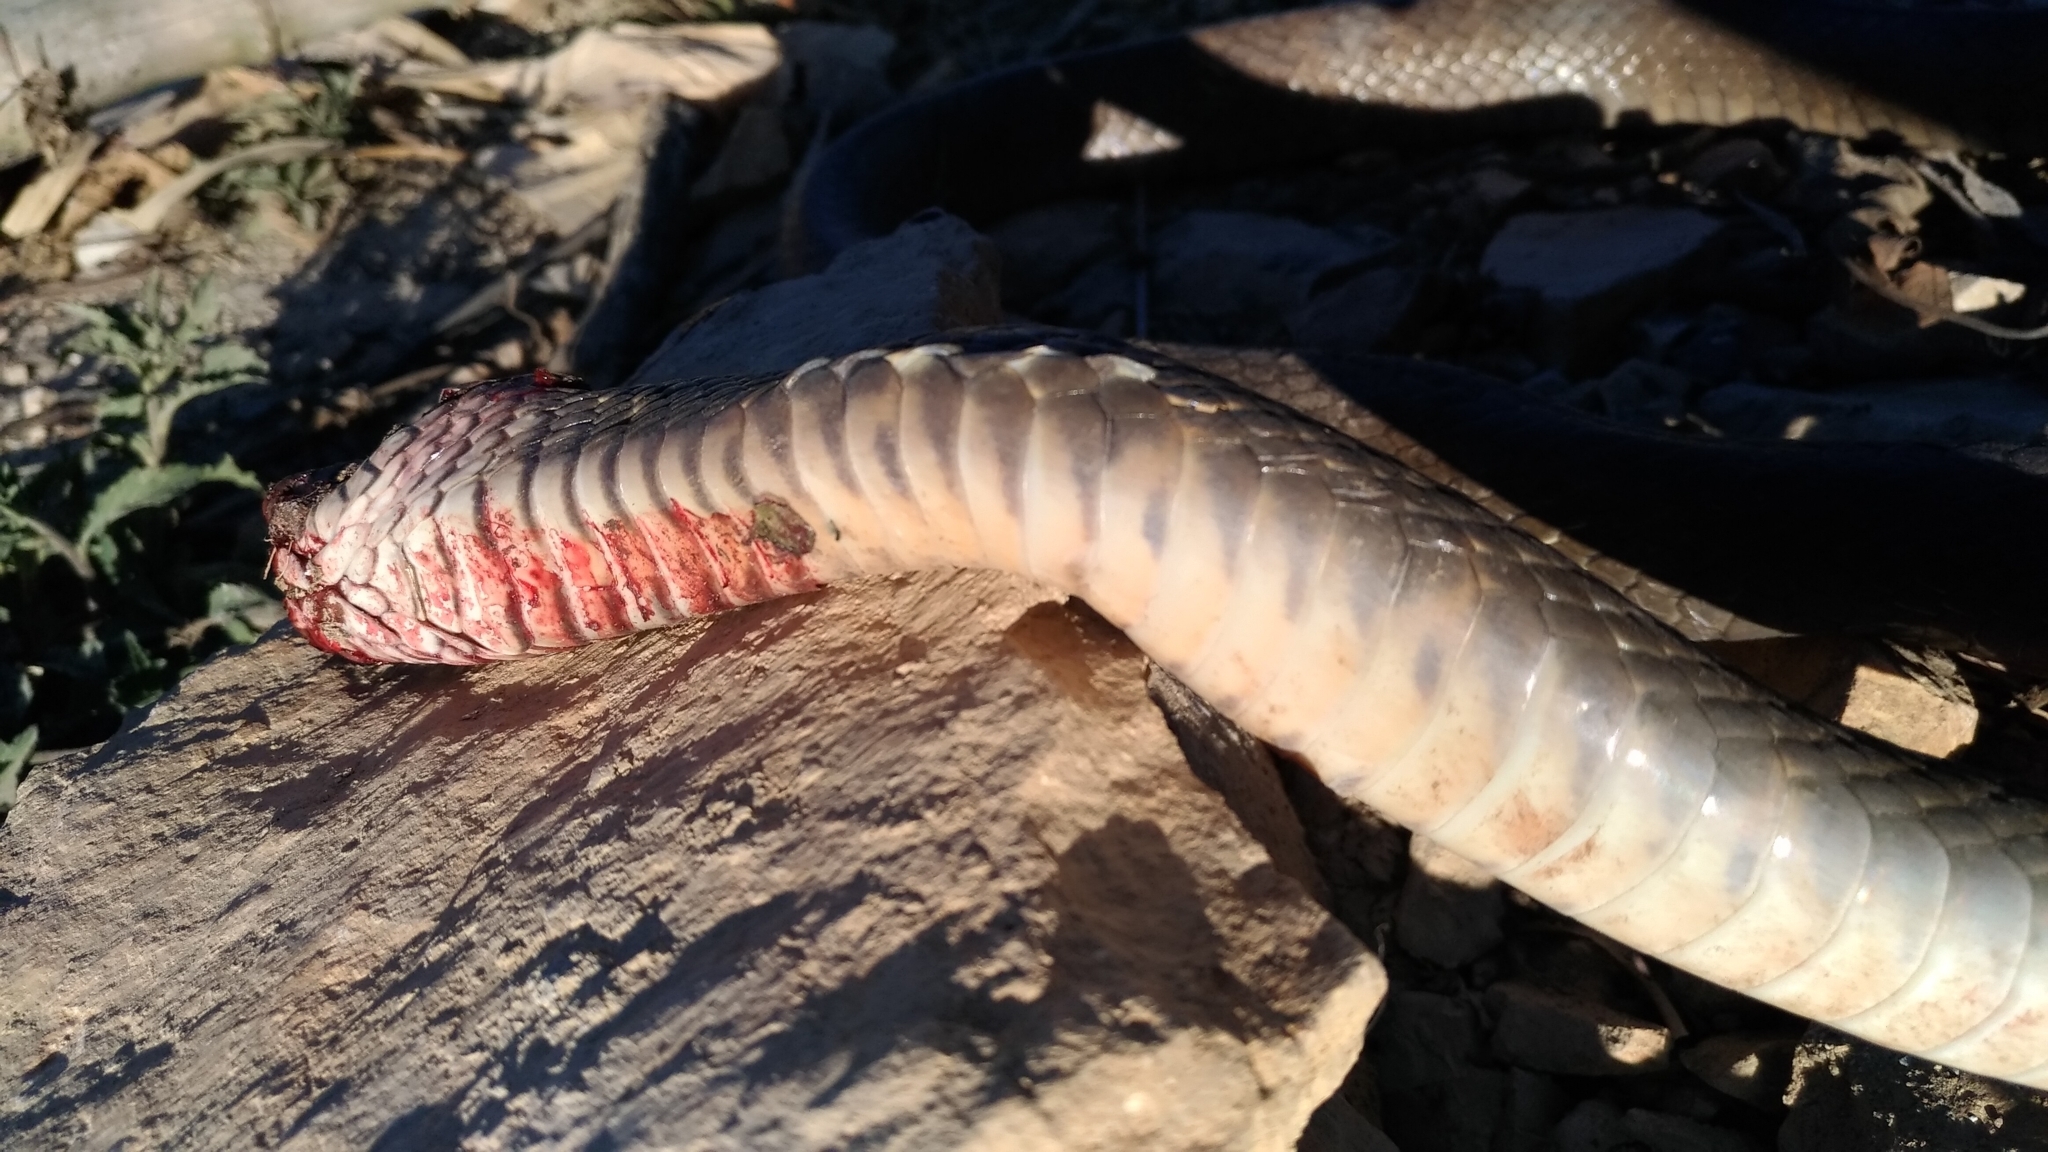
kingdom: Animalia
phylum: Chordata
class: Squamata
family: Colubridae
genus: Ptyas
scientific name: Ptyas mucosa
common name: Oriental ratsnake
